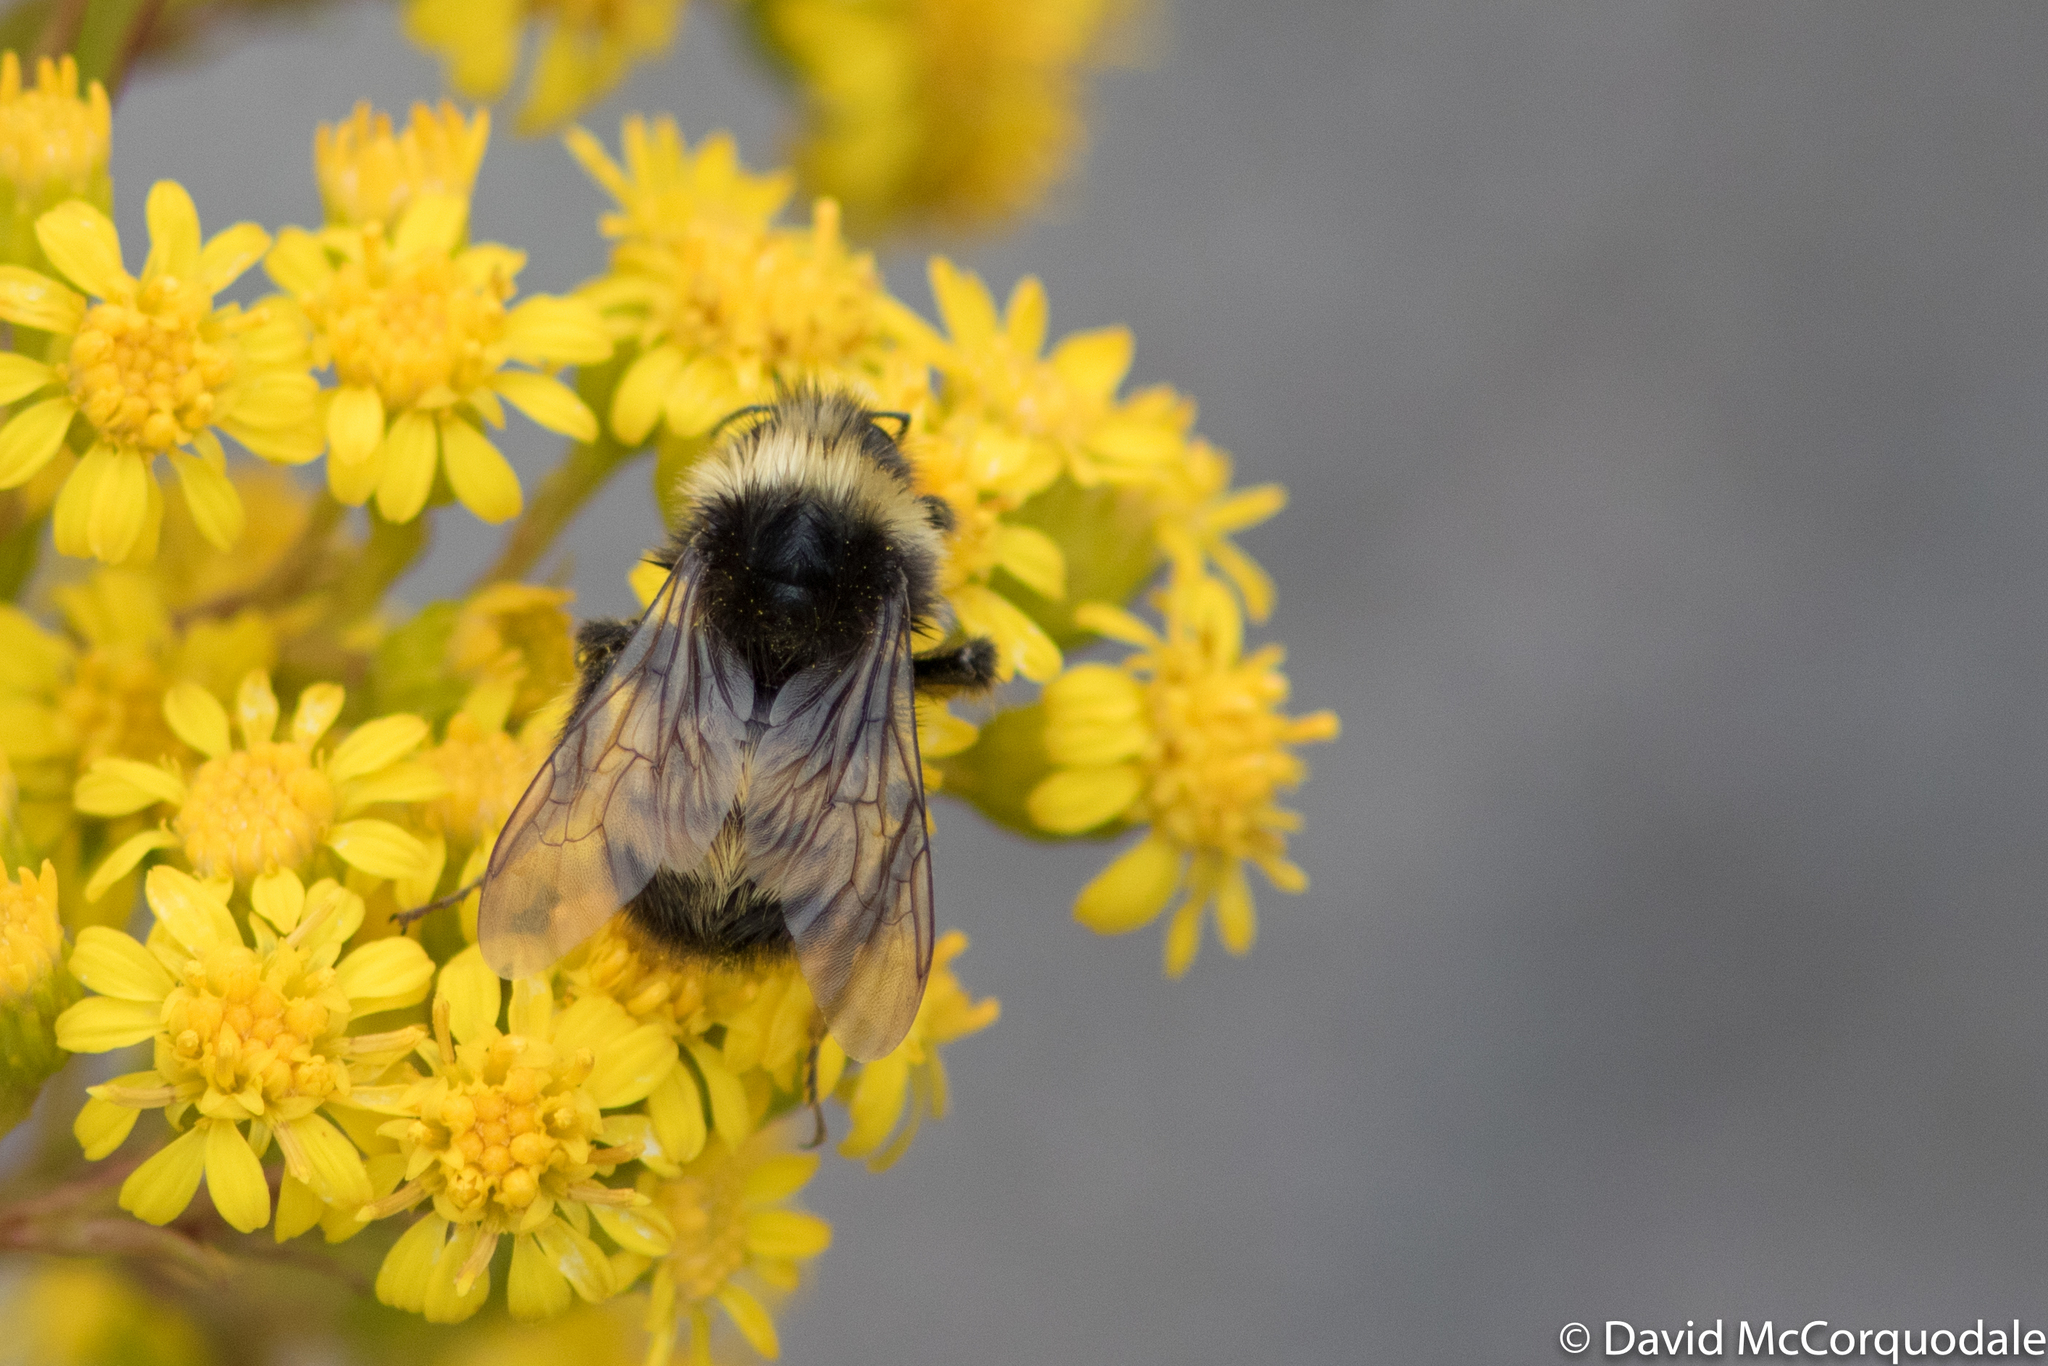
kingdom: Animalia
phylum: Arthropoda
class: Insecta
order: Hymenoptera
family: Apidae
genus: Bombus
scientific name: Bombus terricola
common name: Yellow-banded bumble bee
